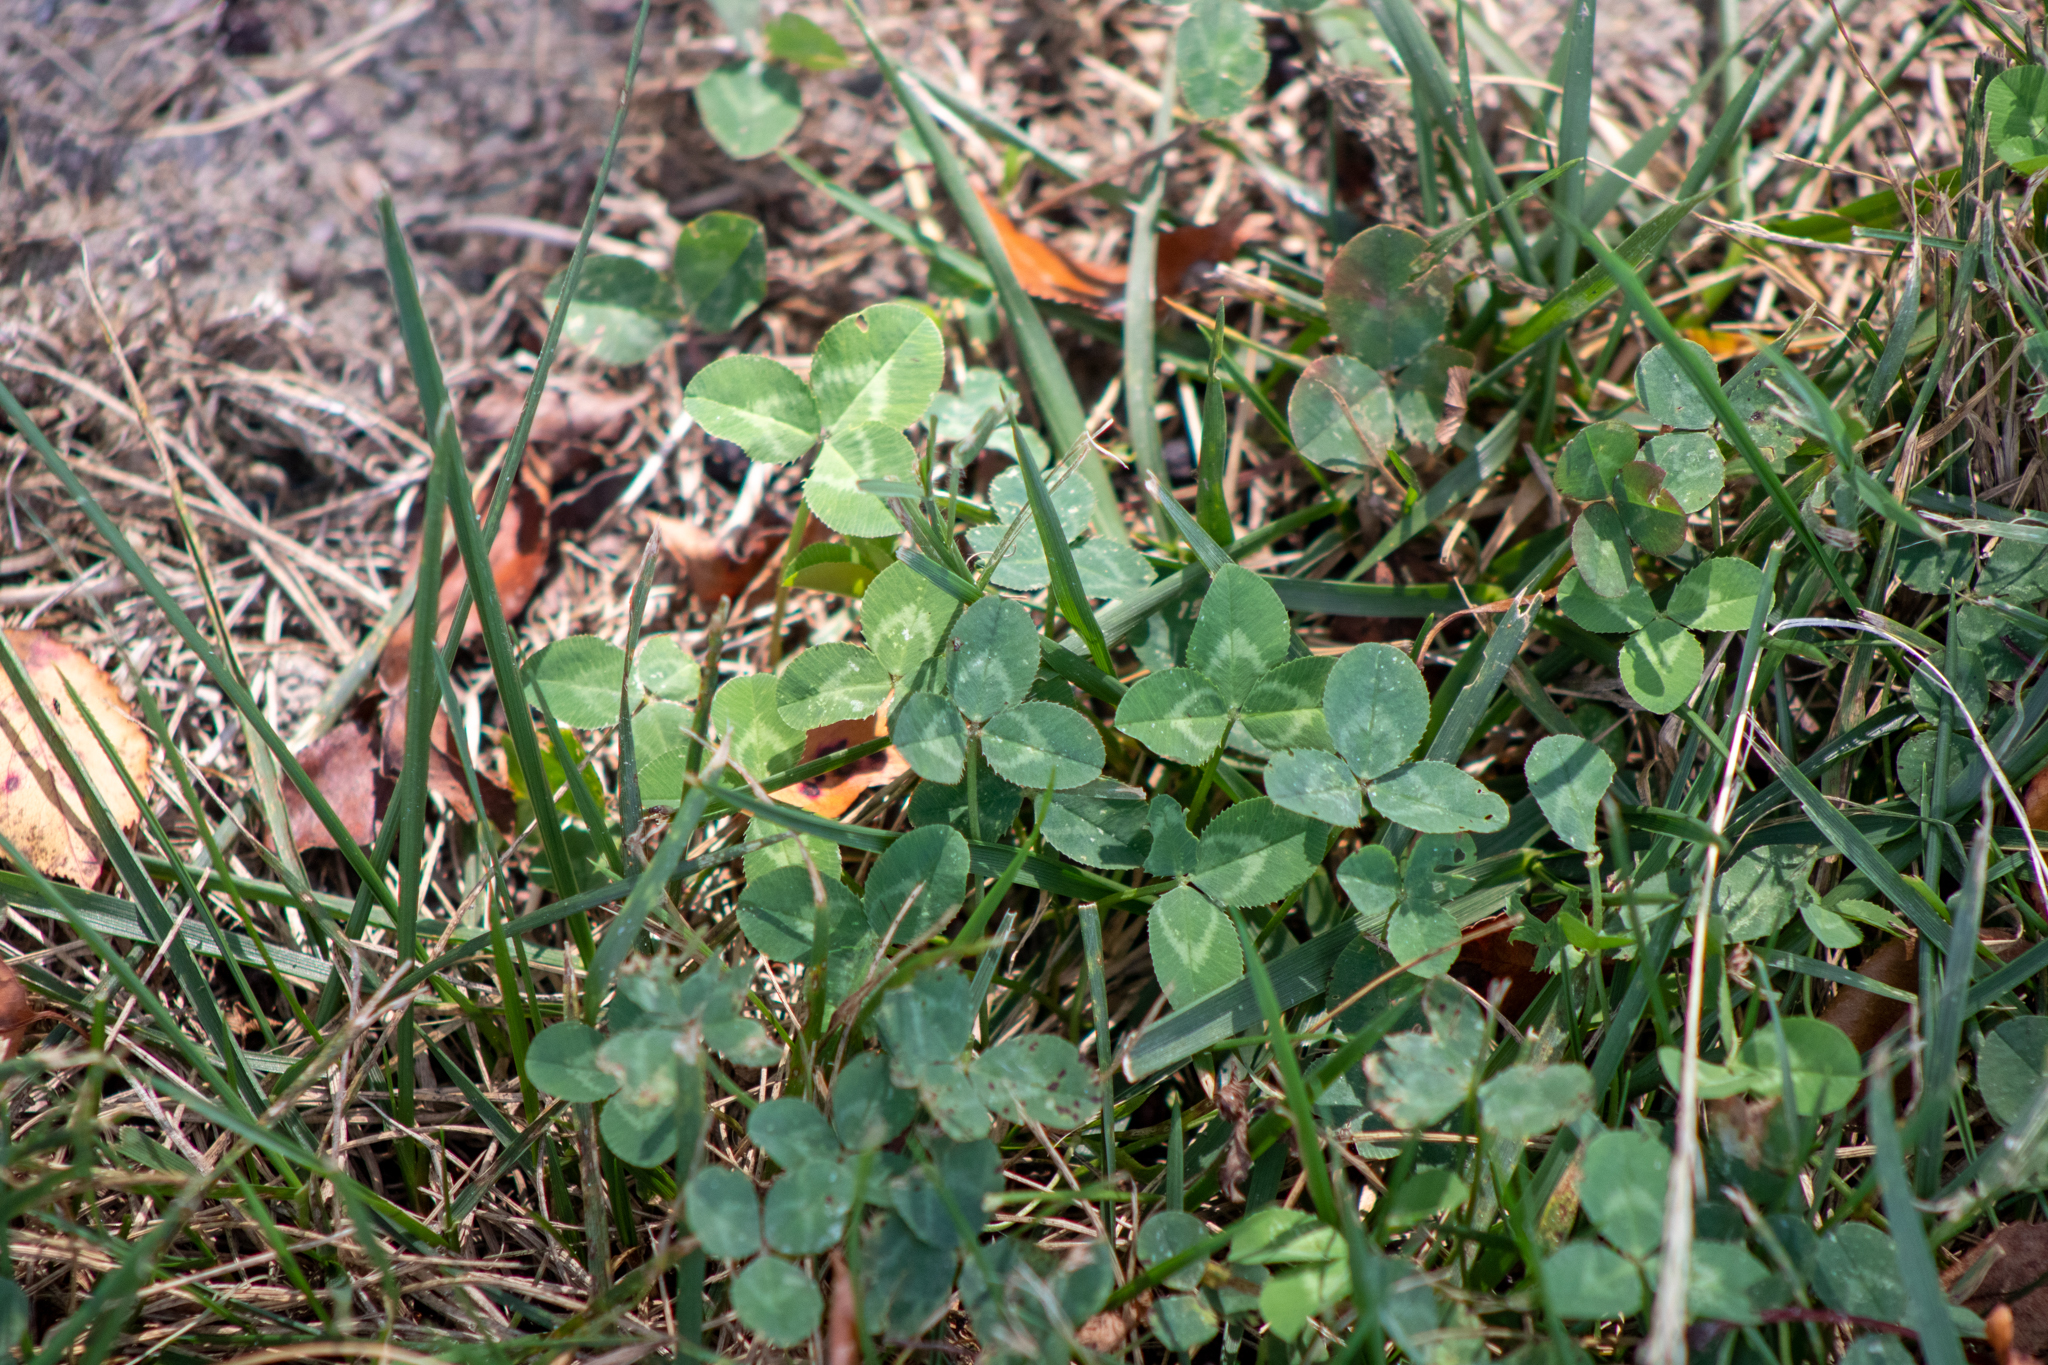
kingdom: Plantae
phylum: Tracheophyta
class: Magnoliopsida
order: Fabales
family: Fabaceae
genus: Trifolium
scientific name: Trifolium repens
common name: White clover
